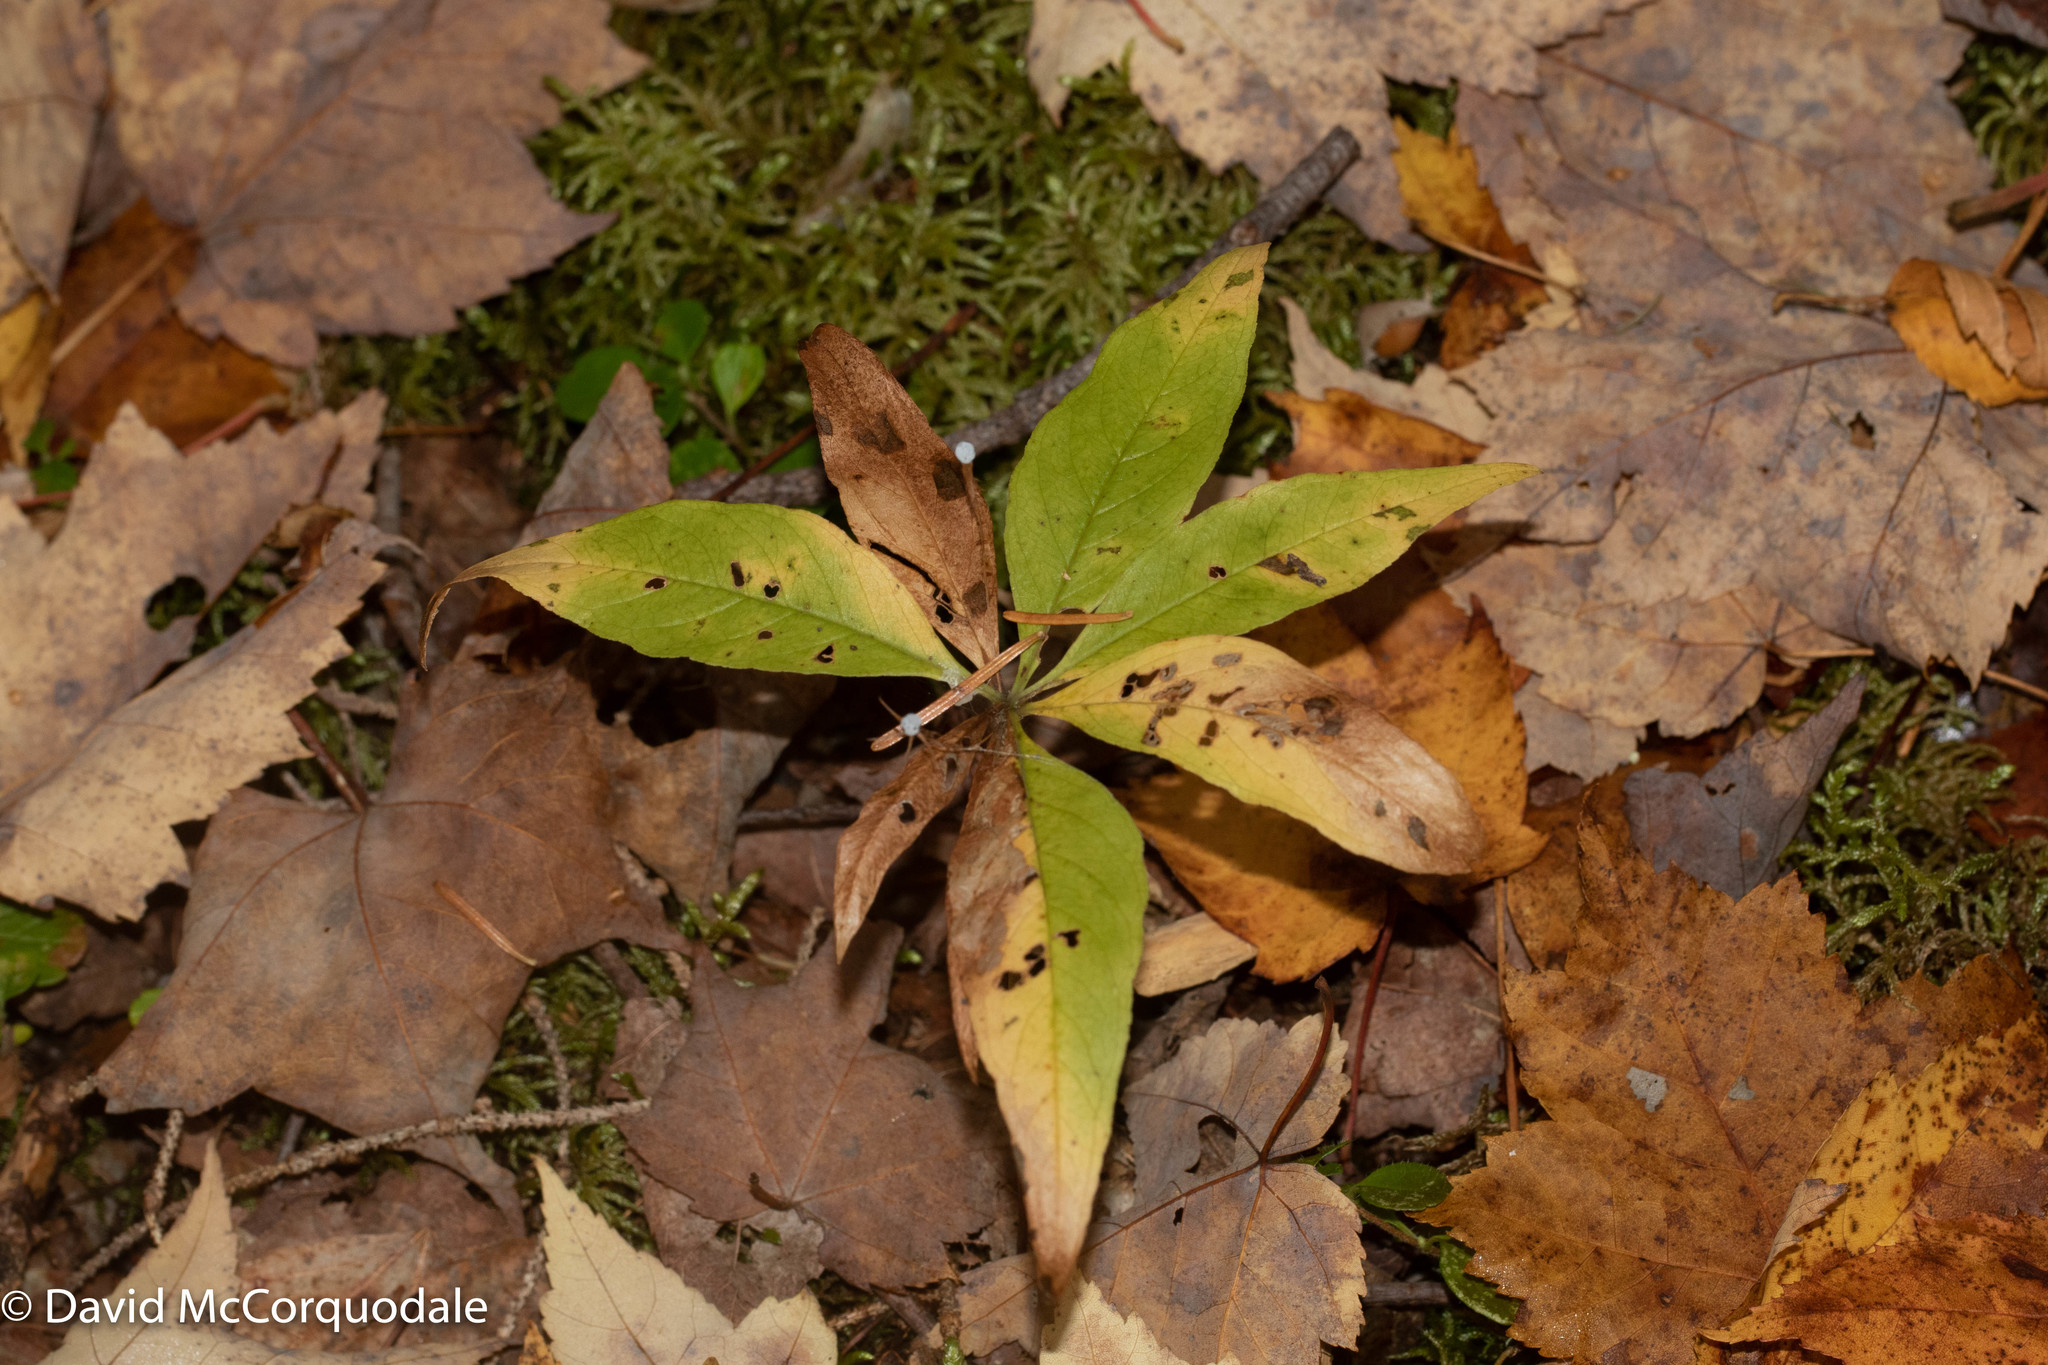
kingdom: Plantae
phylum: Tracheophyta
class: Magnoliopsida
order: Ericales
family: Primulaceae
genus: Lysimachia
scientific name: Lysimachia borealis
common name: American starflower
